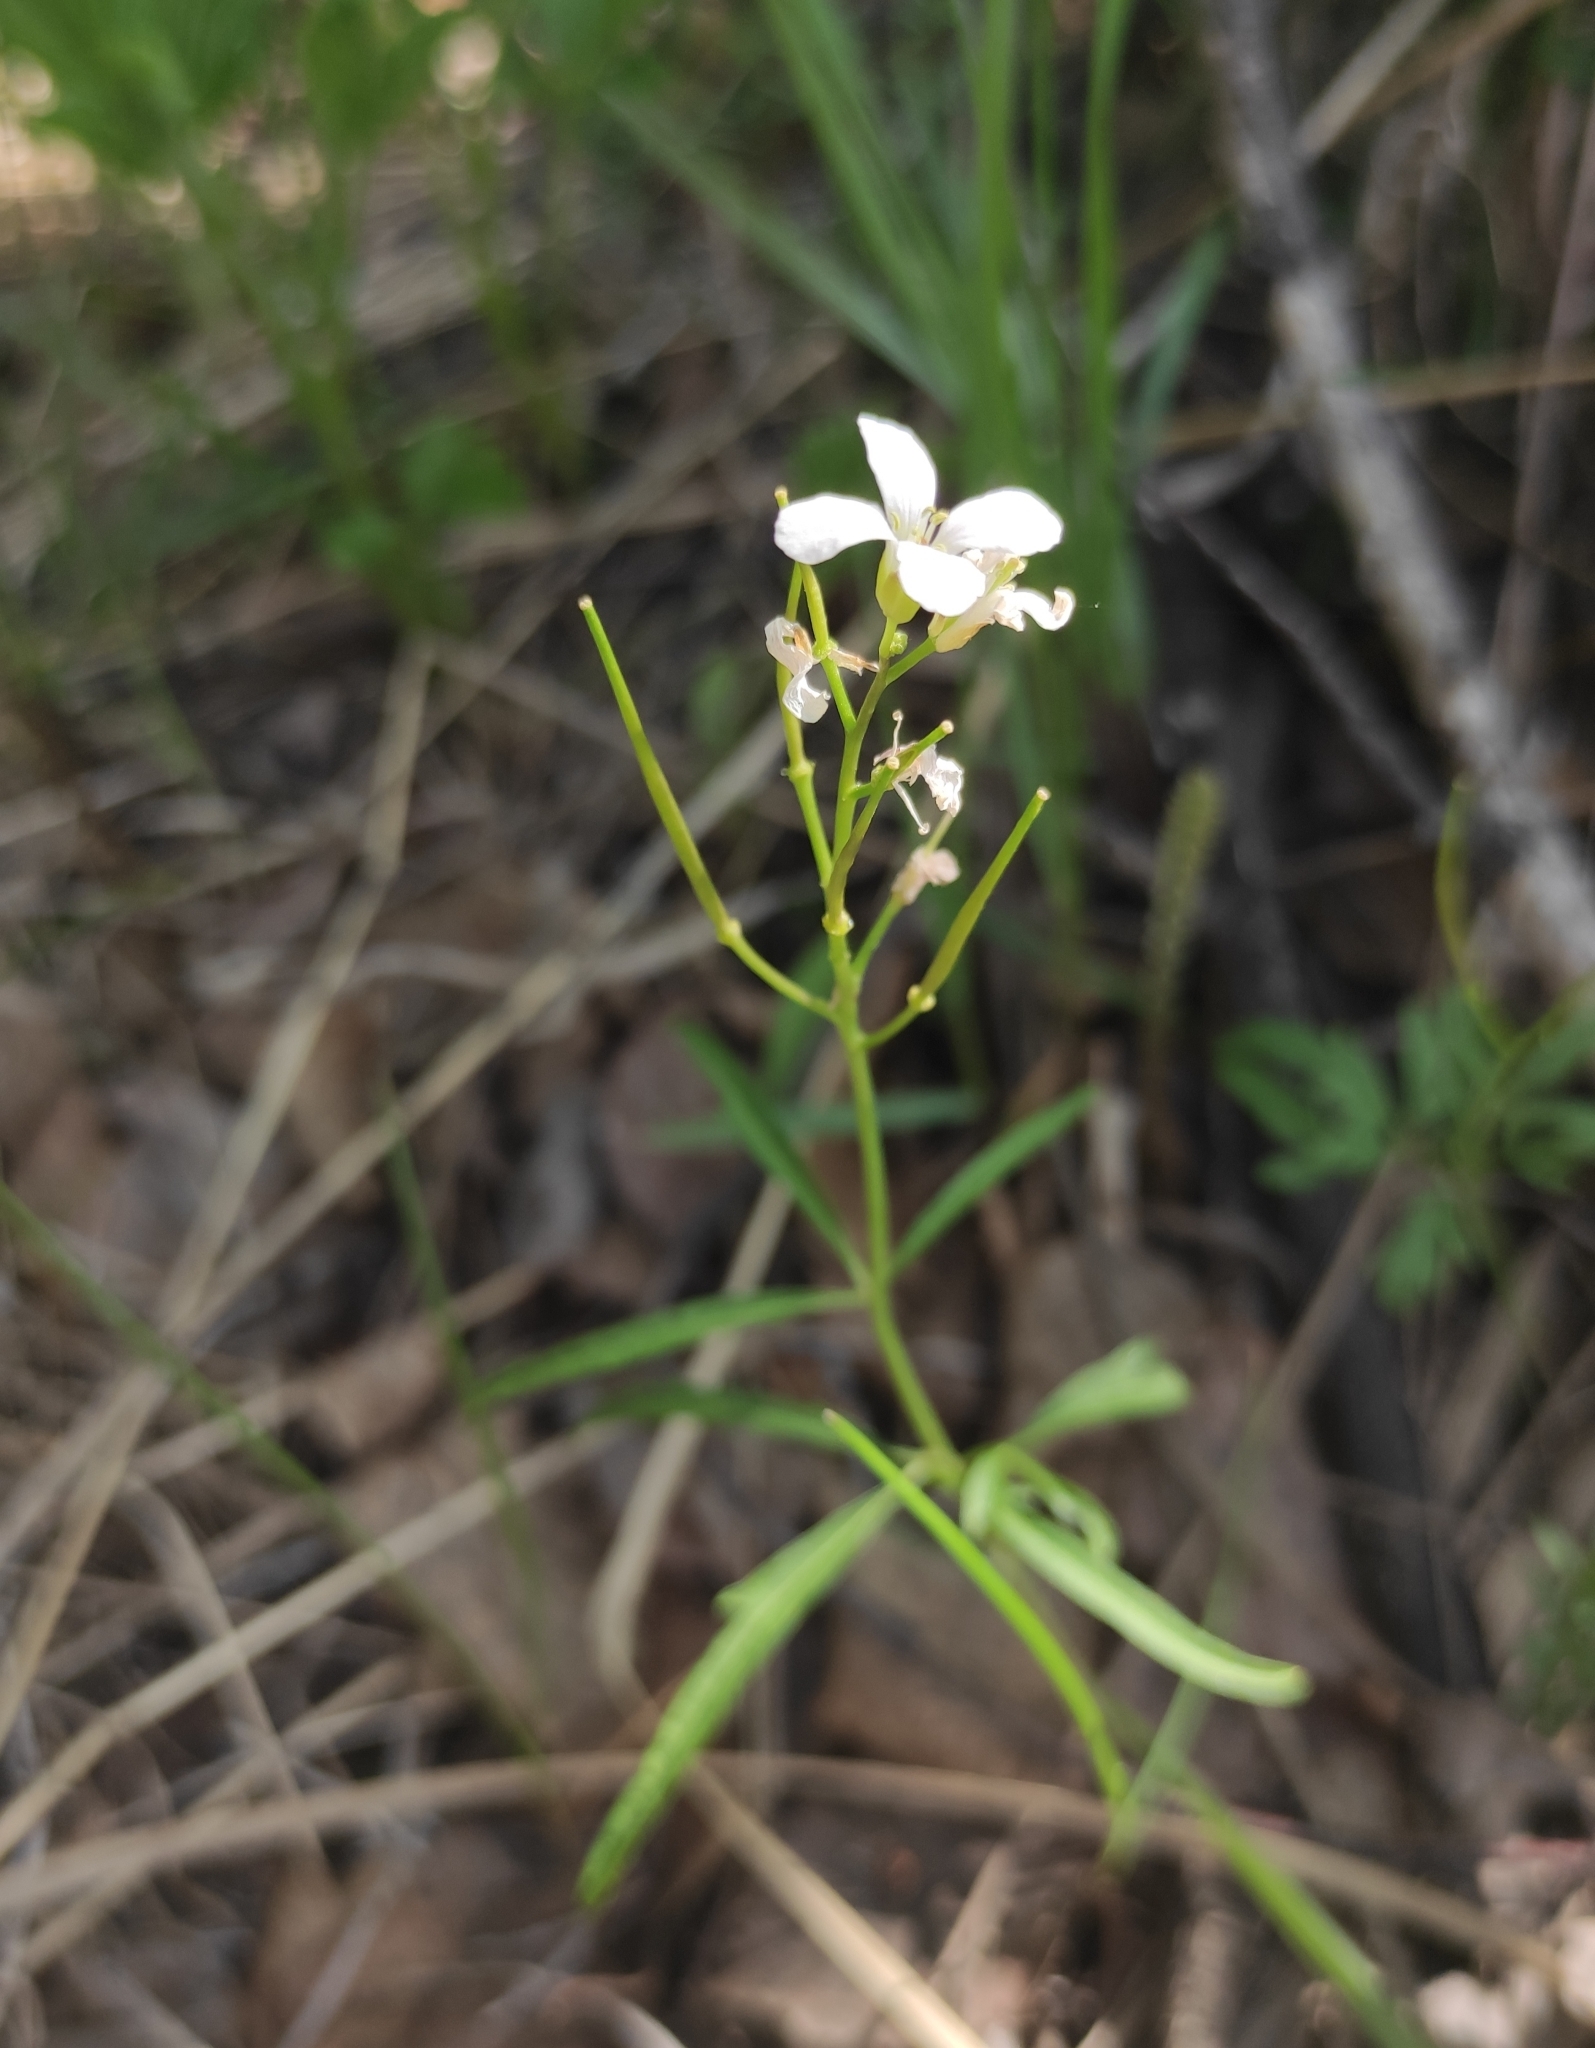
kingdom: Plantae
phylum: Tracheophyta
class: Magnoliopsida
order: Brassicales
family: Brassicaceae
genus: Cardamine
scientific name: Cardamine trifida
